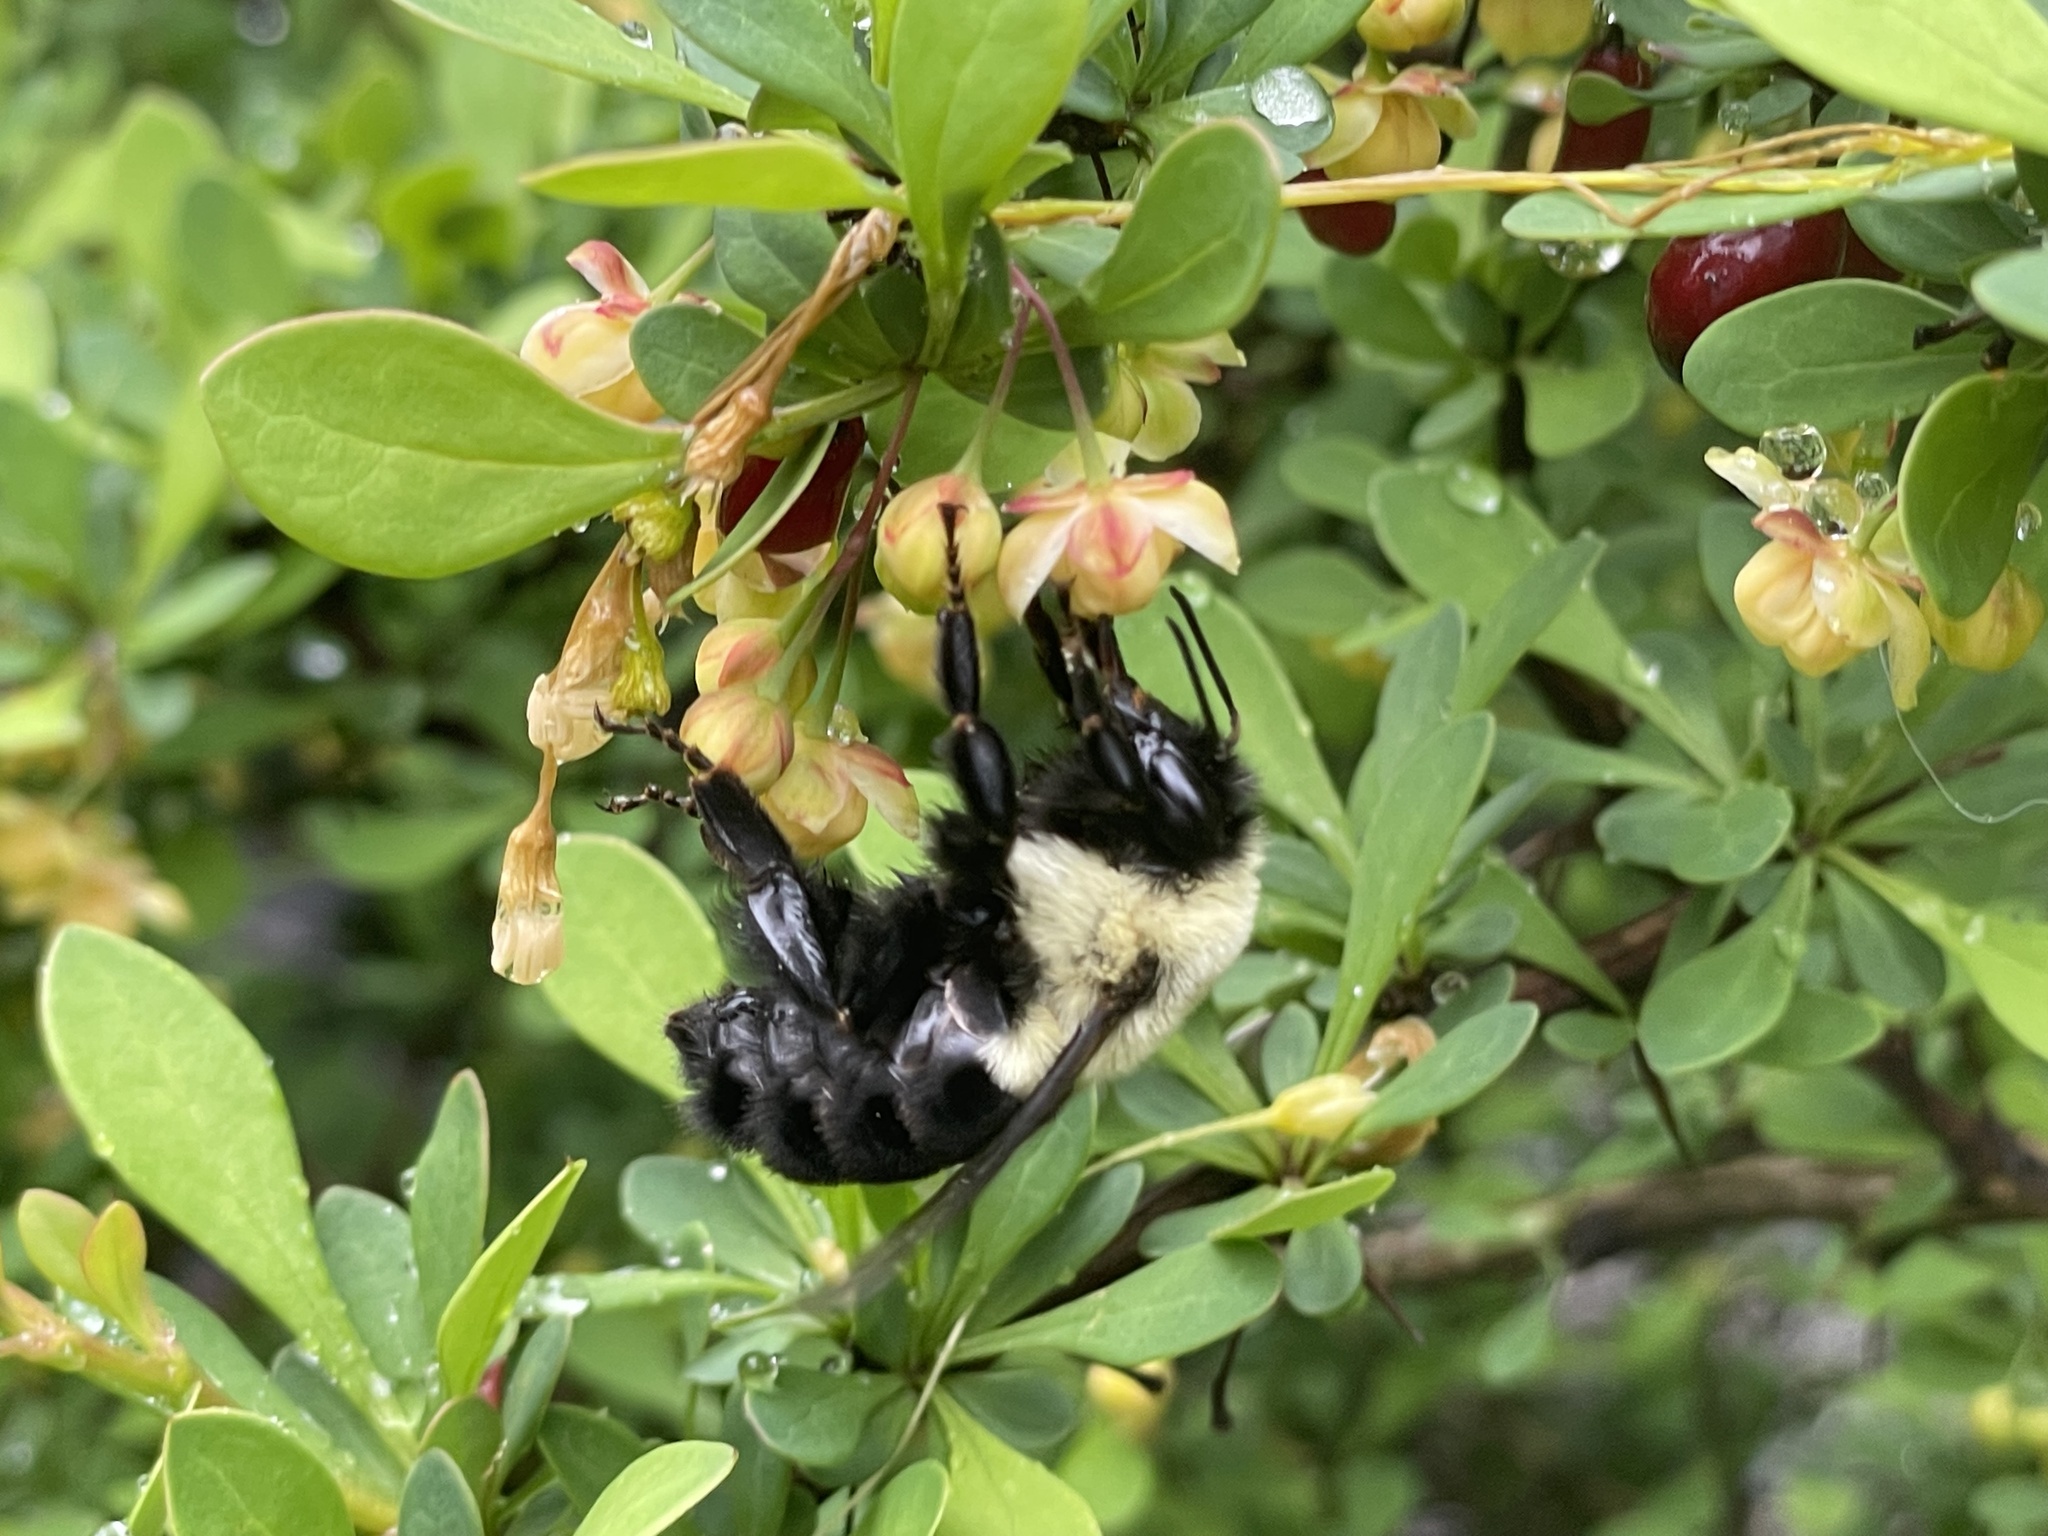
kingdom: Animalia
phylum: Arthropoda
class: Insecta
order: Hymenoptera
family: Apidae
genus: Bombus
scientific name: Bombus impatiens
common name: Common eastern bumble bee
